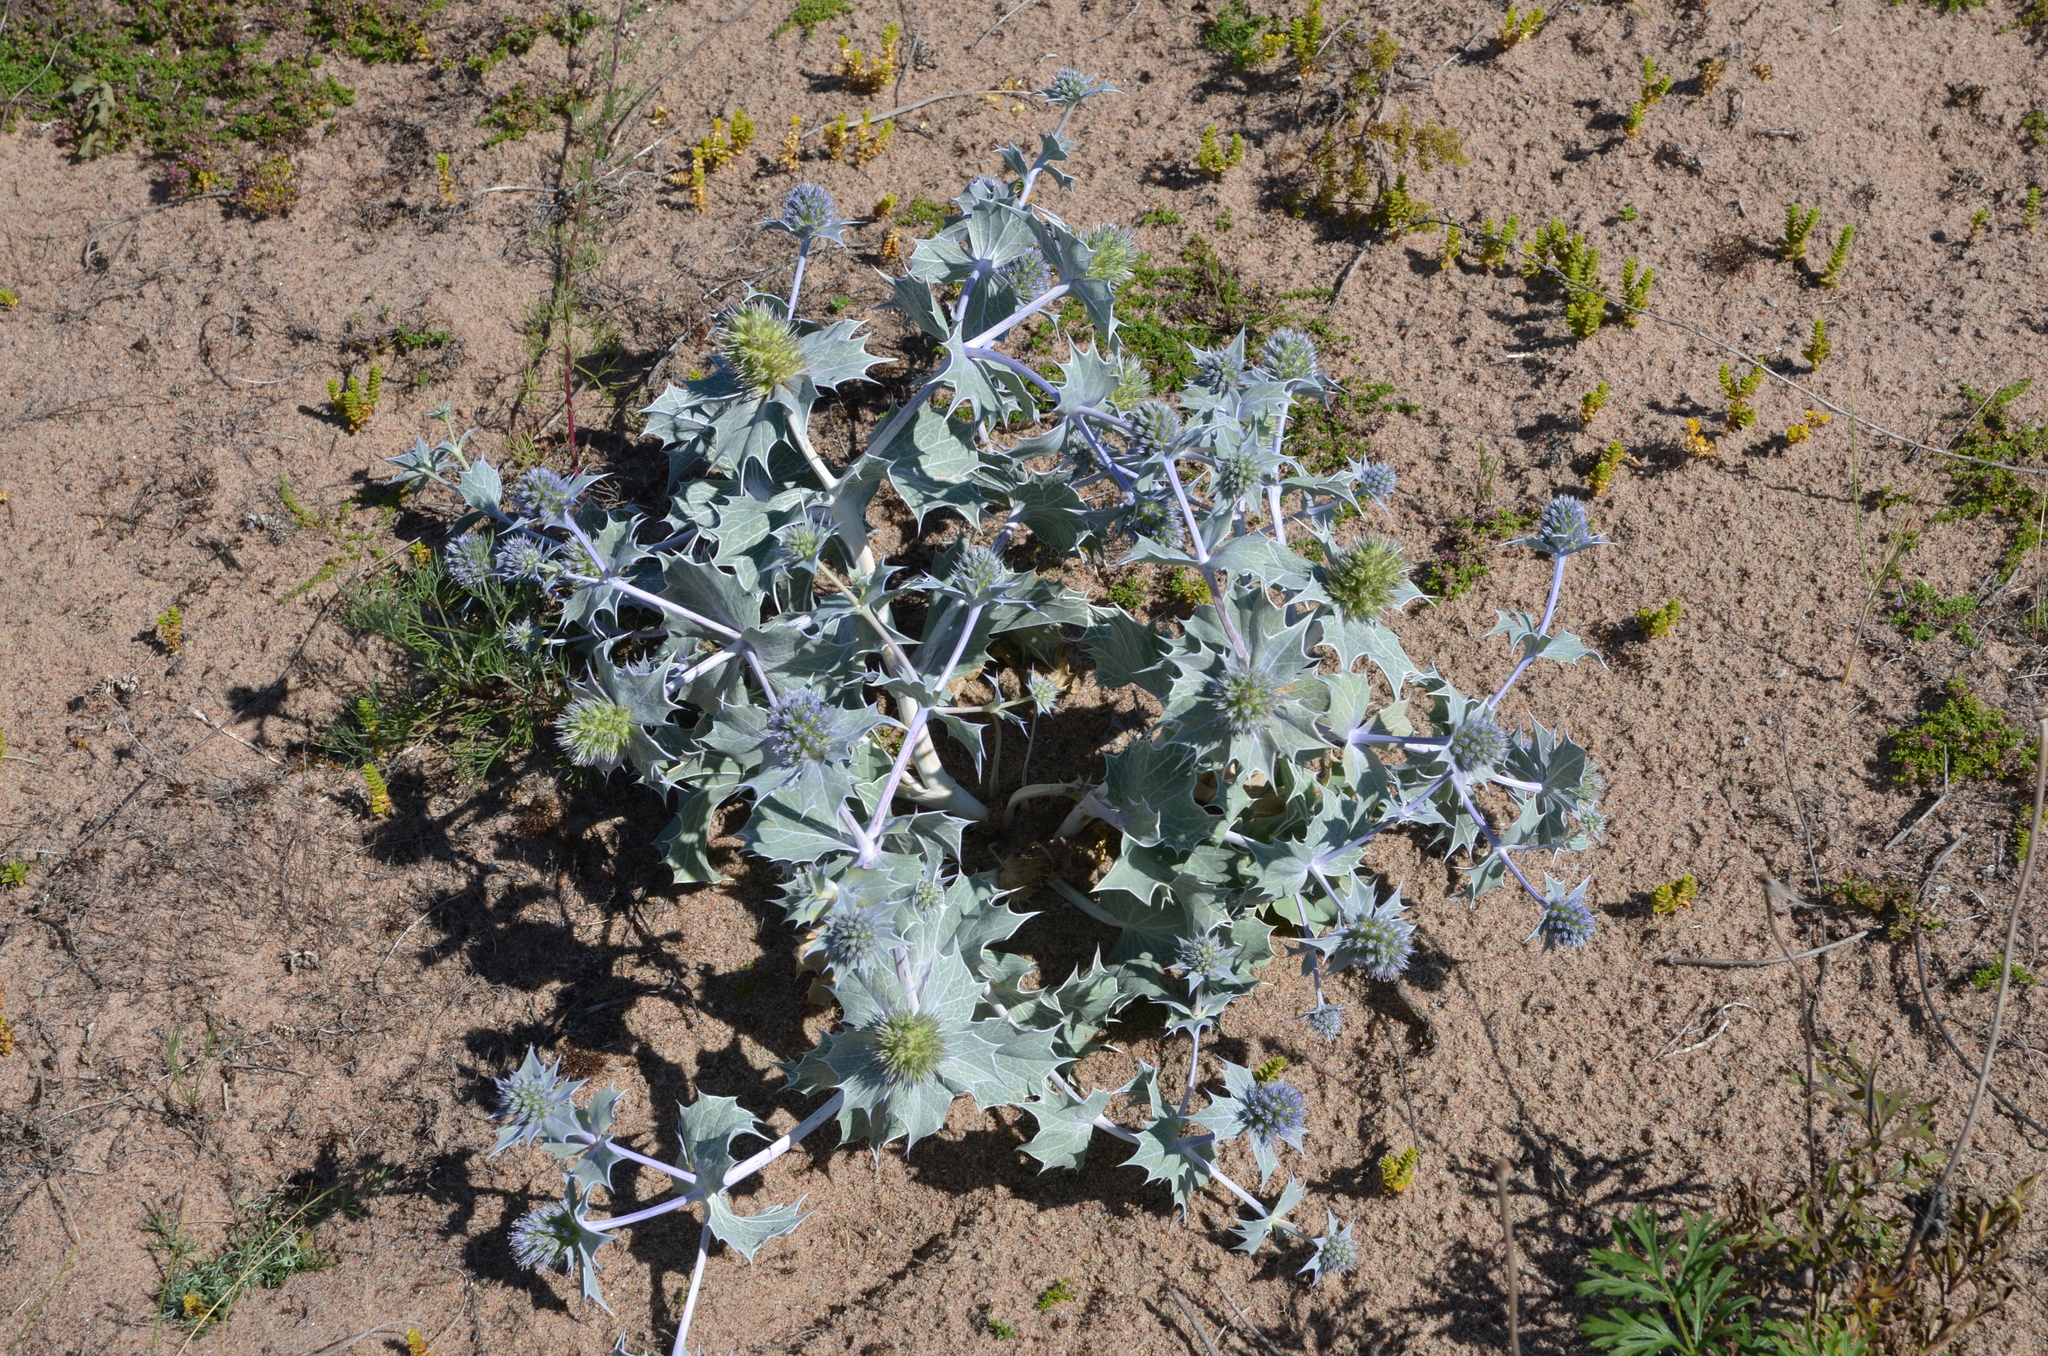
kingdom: Plantae
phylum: Tracheophyta
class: Magnoliopsida
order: Apiales
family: Apiaceae
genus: Eryngium
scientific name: Eryngium maritimum
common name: Sea-holly
